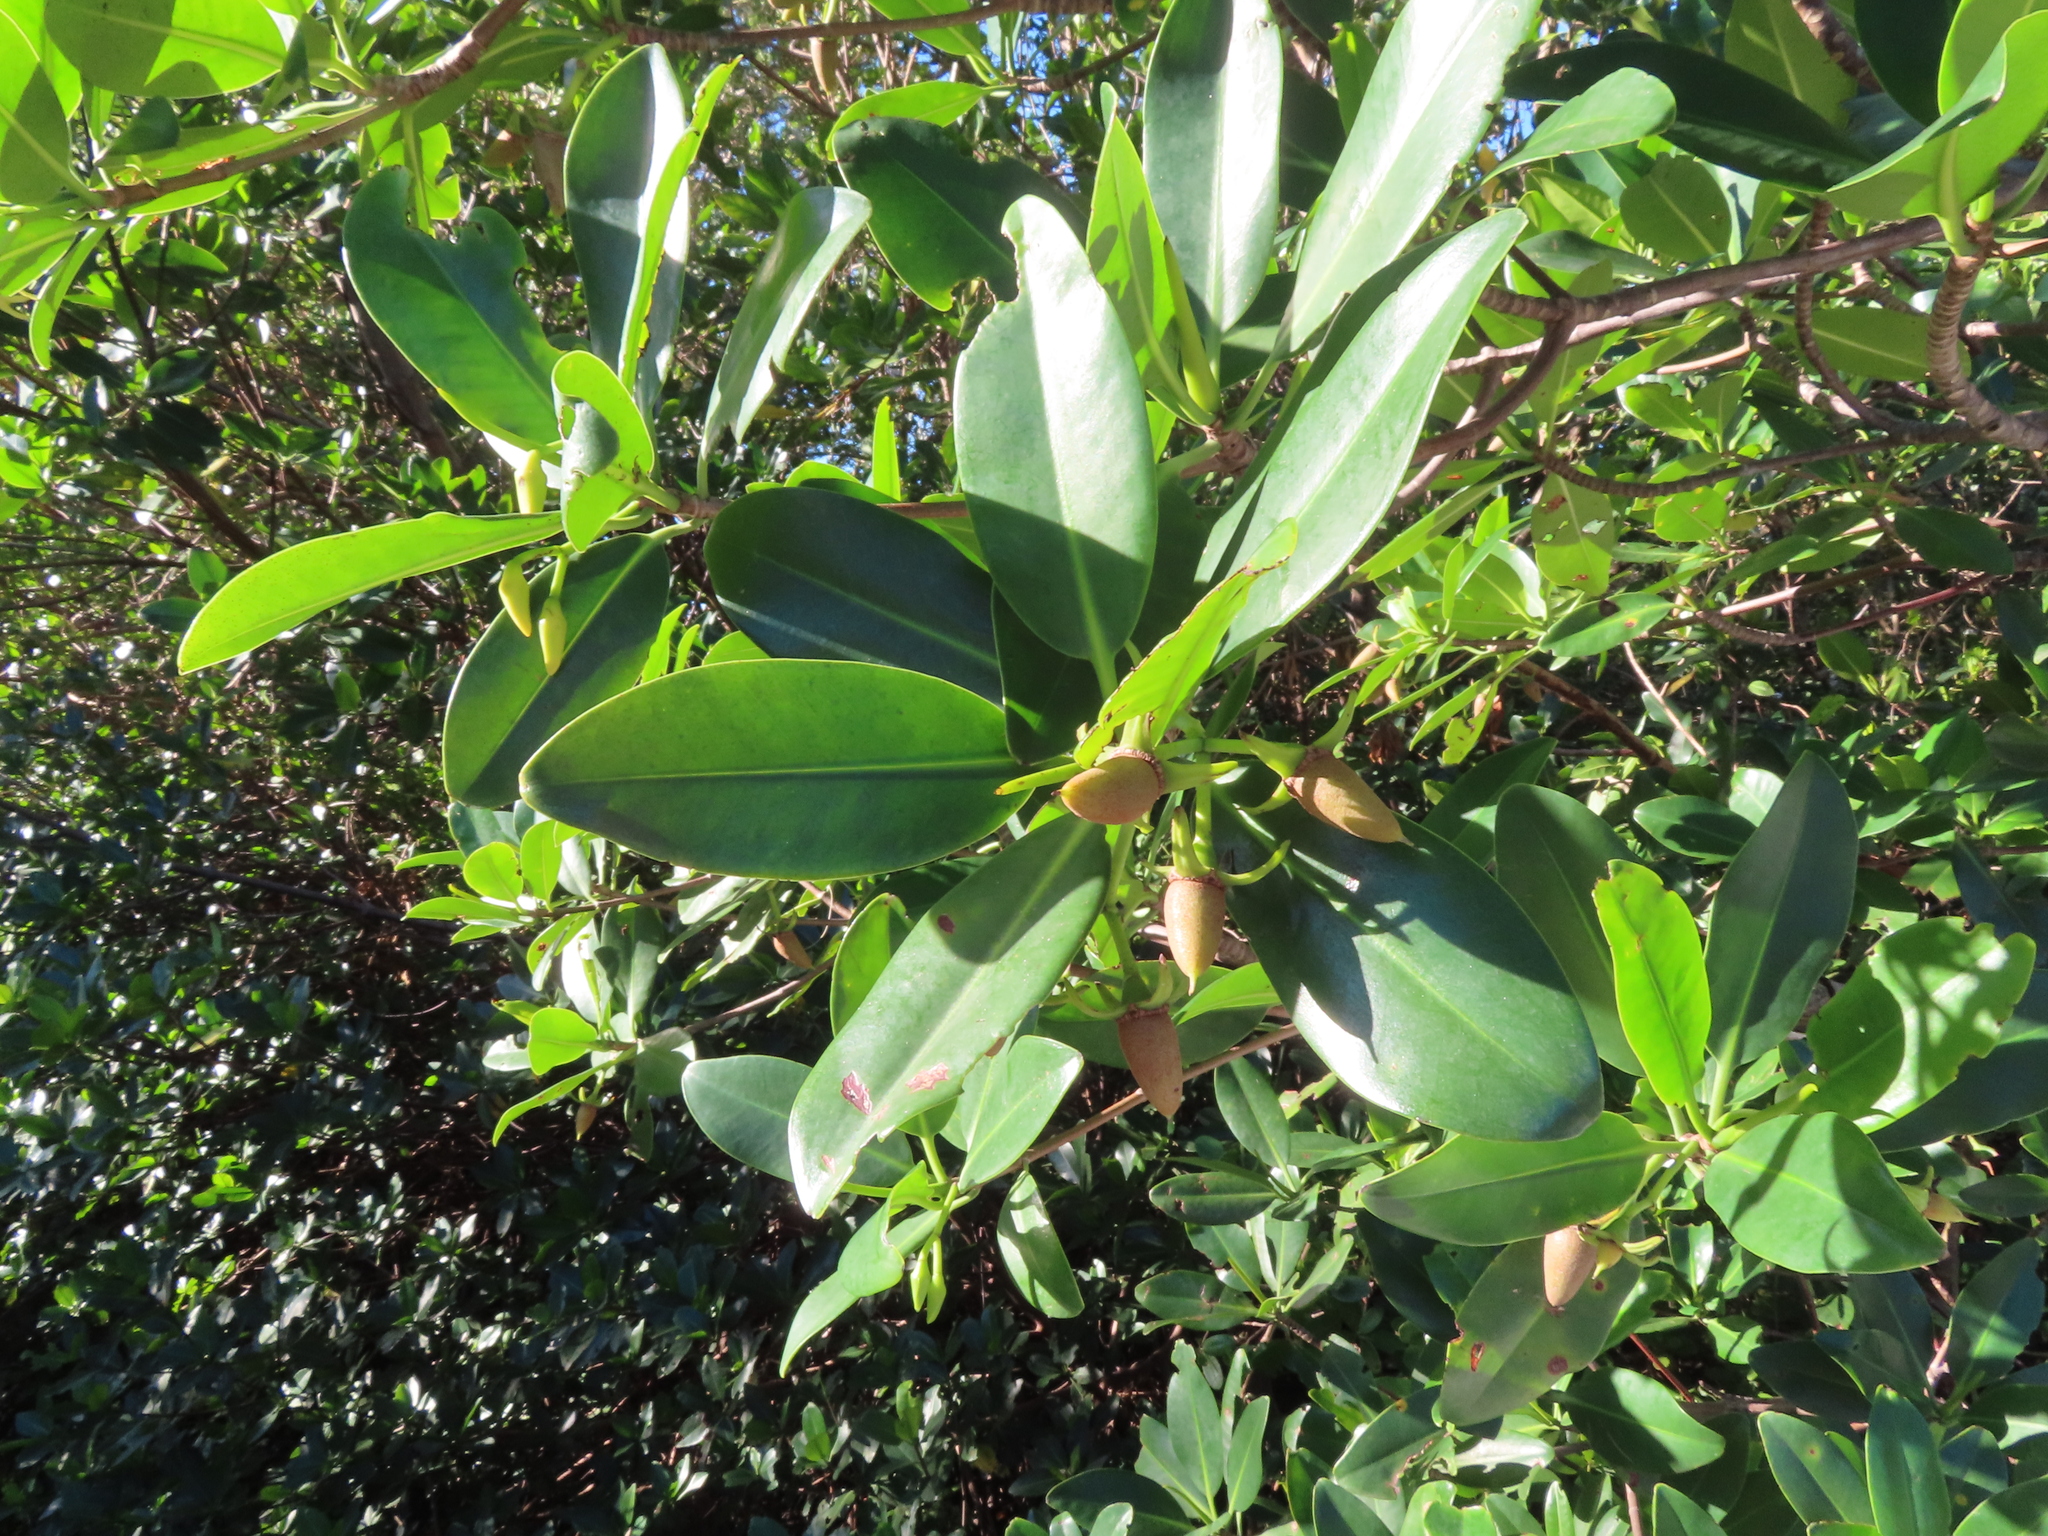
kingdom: Plantae
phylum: Tracheophyta
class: Magnoliopsida
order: Malpighiales
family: Rhizophoraceae
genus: Rhizophora
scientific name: Rhizophora mangle
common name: Red mangrove
